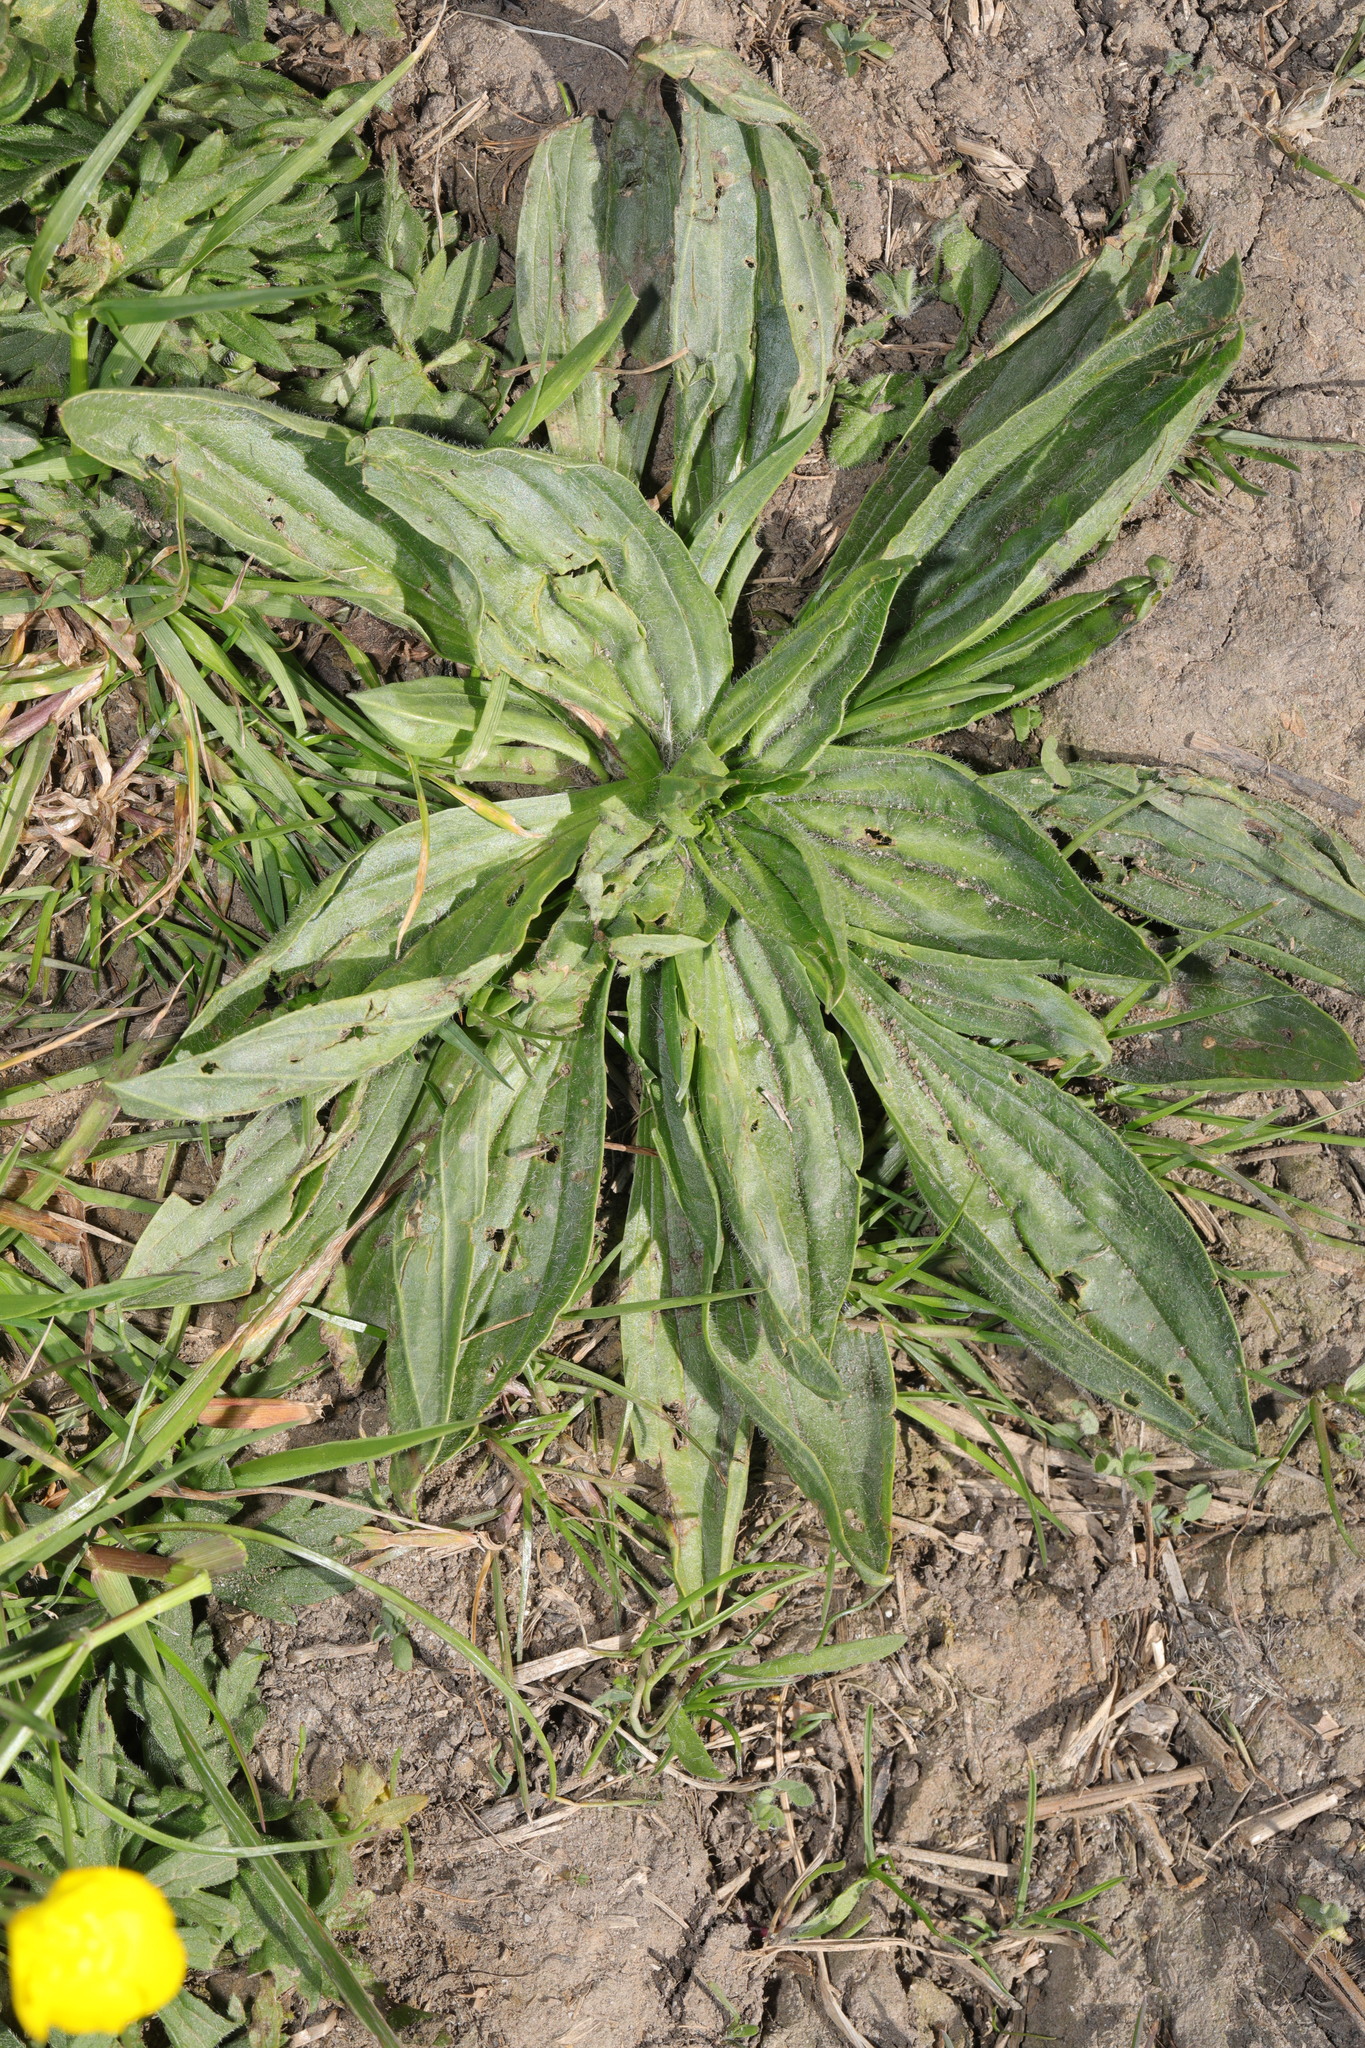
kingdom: Plantae
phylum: Tracheophyta
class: Magnoliopsida
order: Lamiales
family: Plantaginaceae
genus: Plantago
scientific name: Plantago lanceolata
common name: Ribwort plantain
